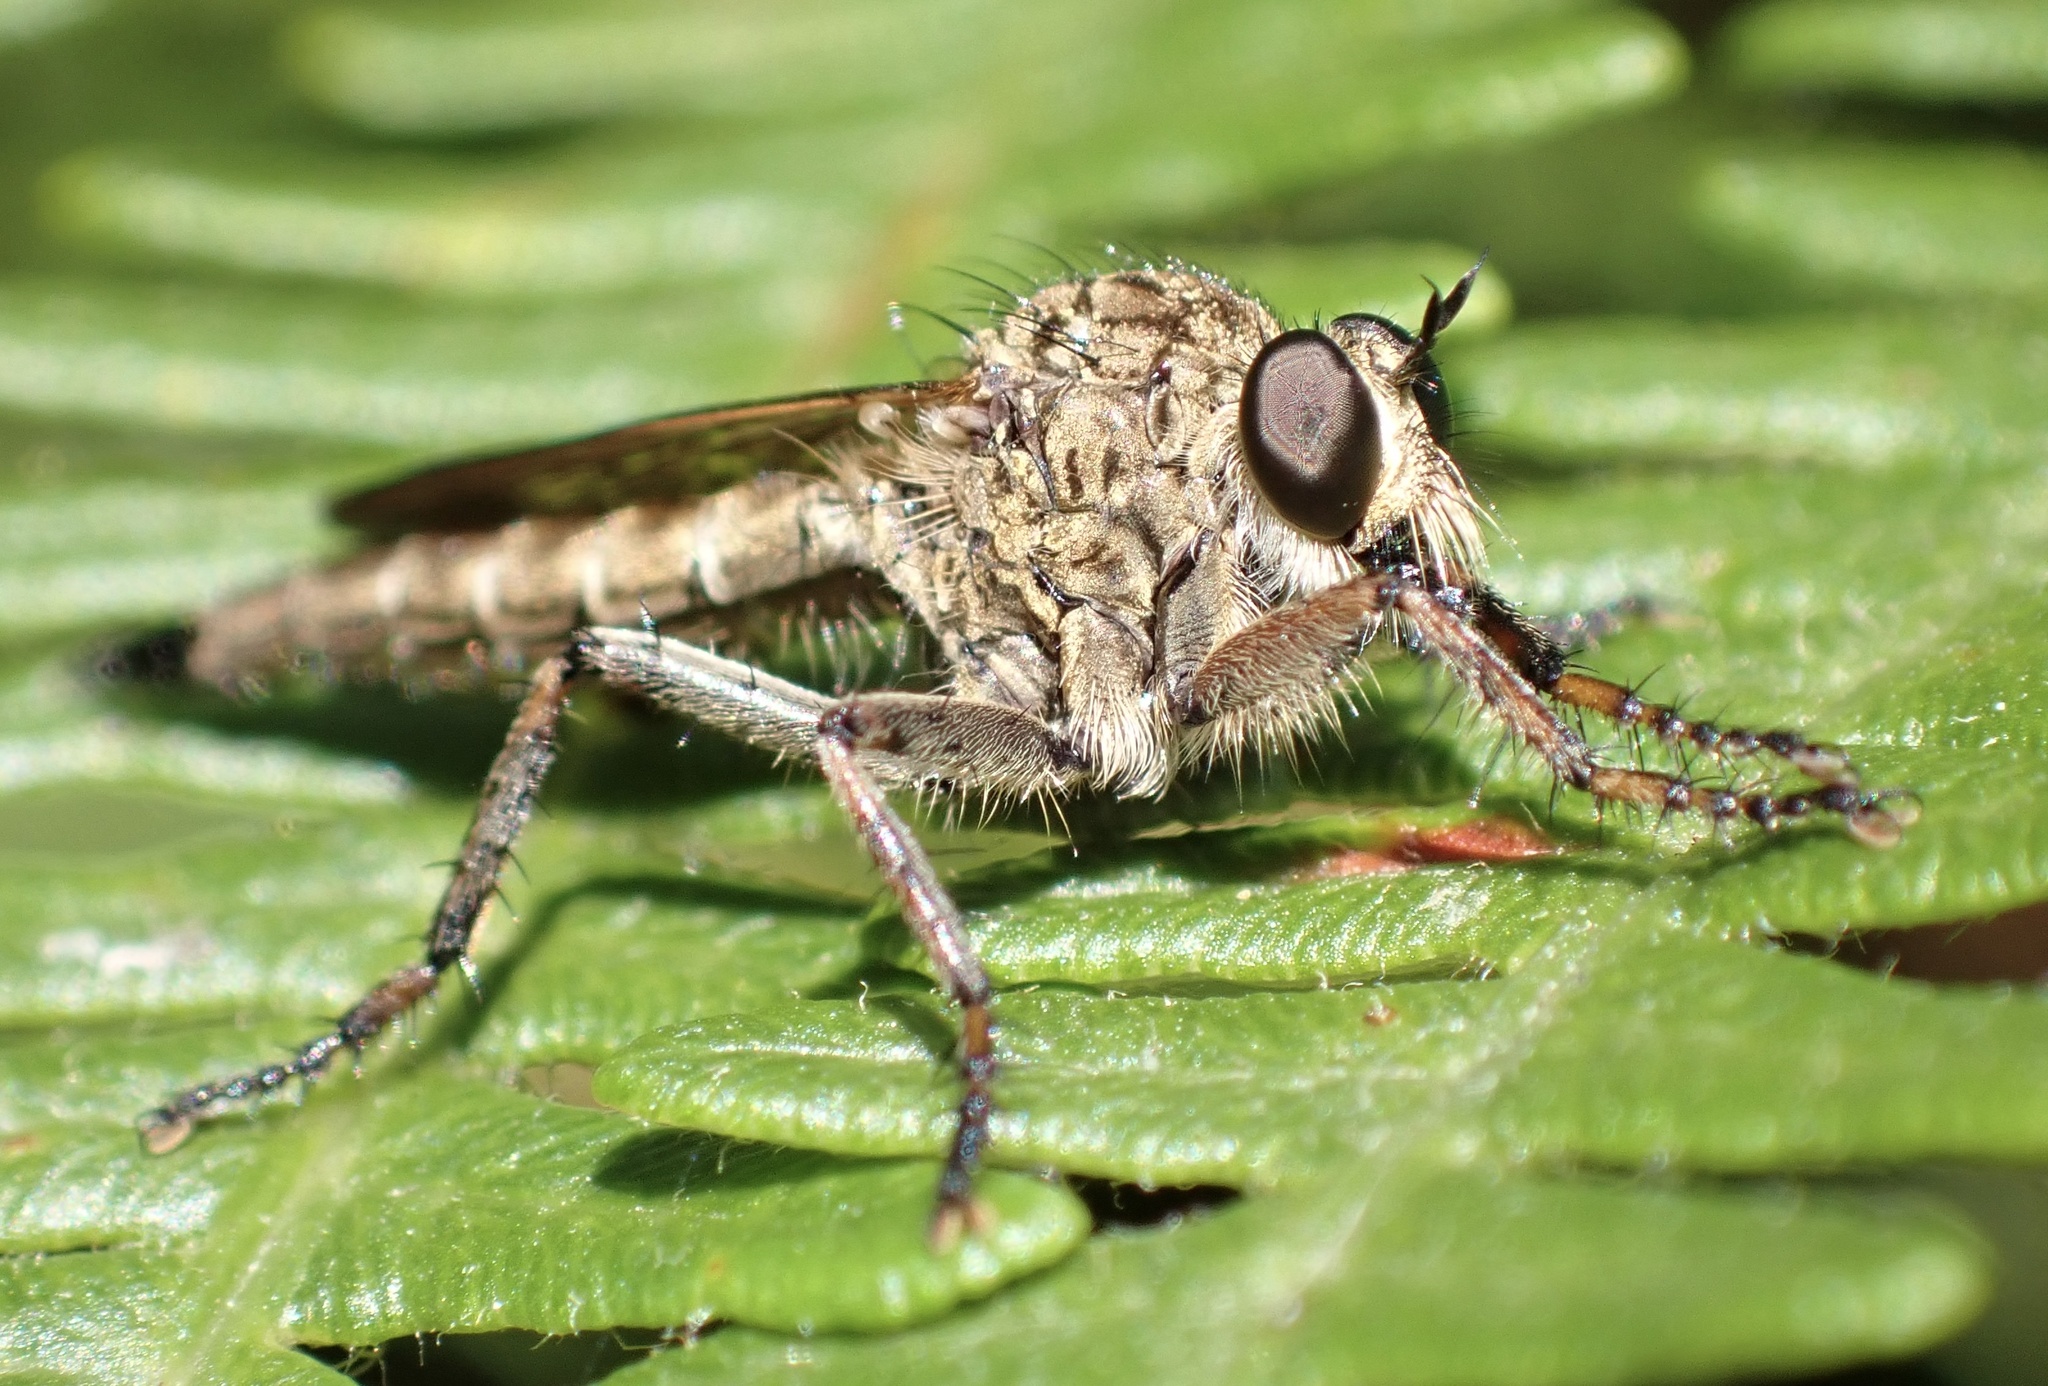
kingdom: Animalia
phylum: Arthropoda
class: Insecta
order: Diptera
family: Asilidae
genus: Epitriptus
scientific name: Epitriptus cingulatus
